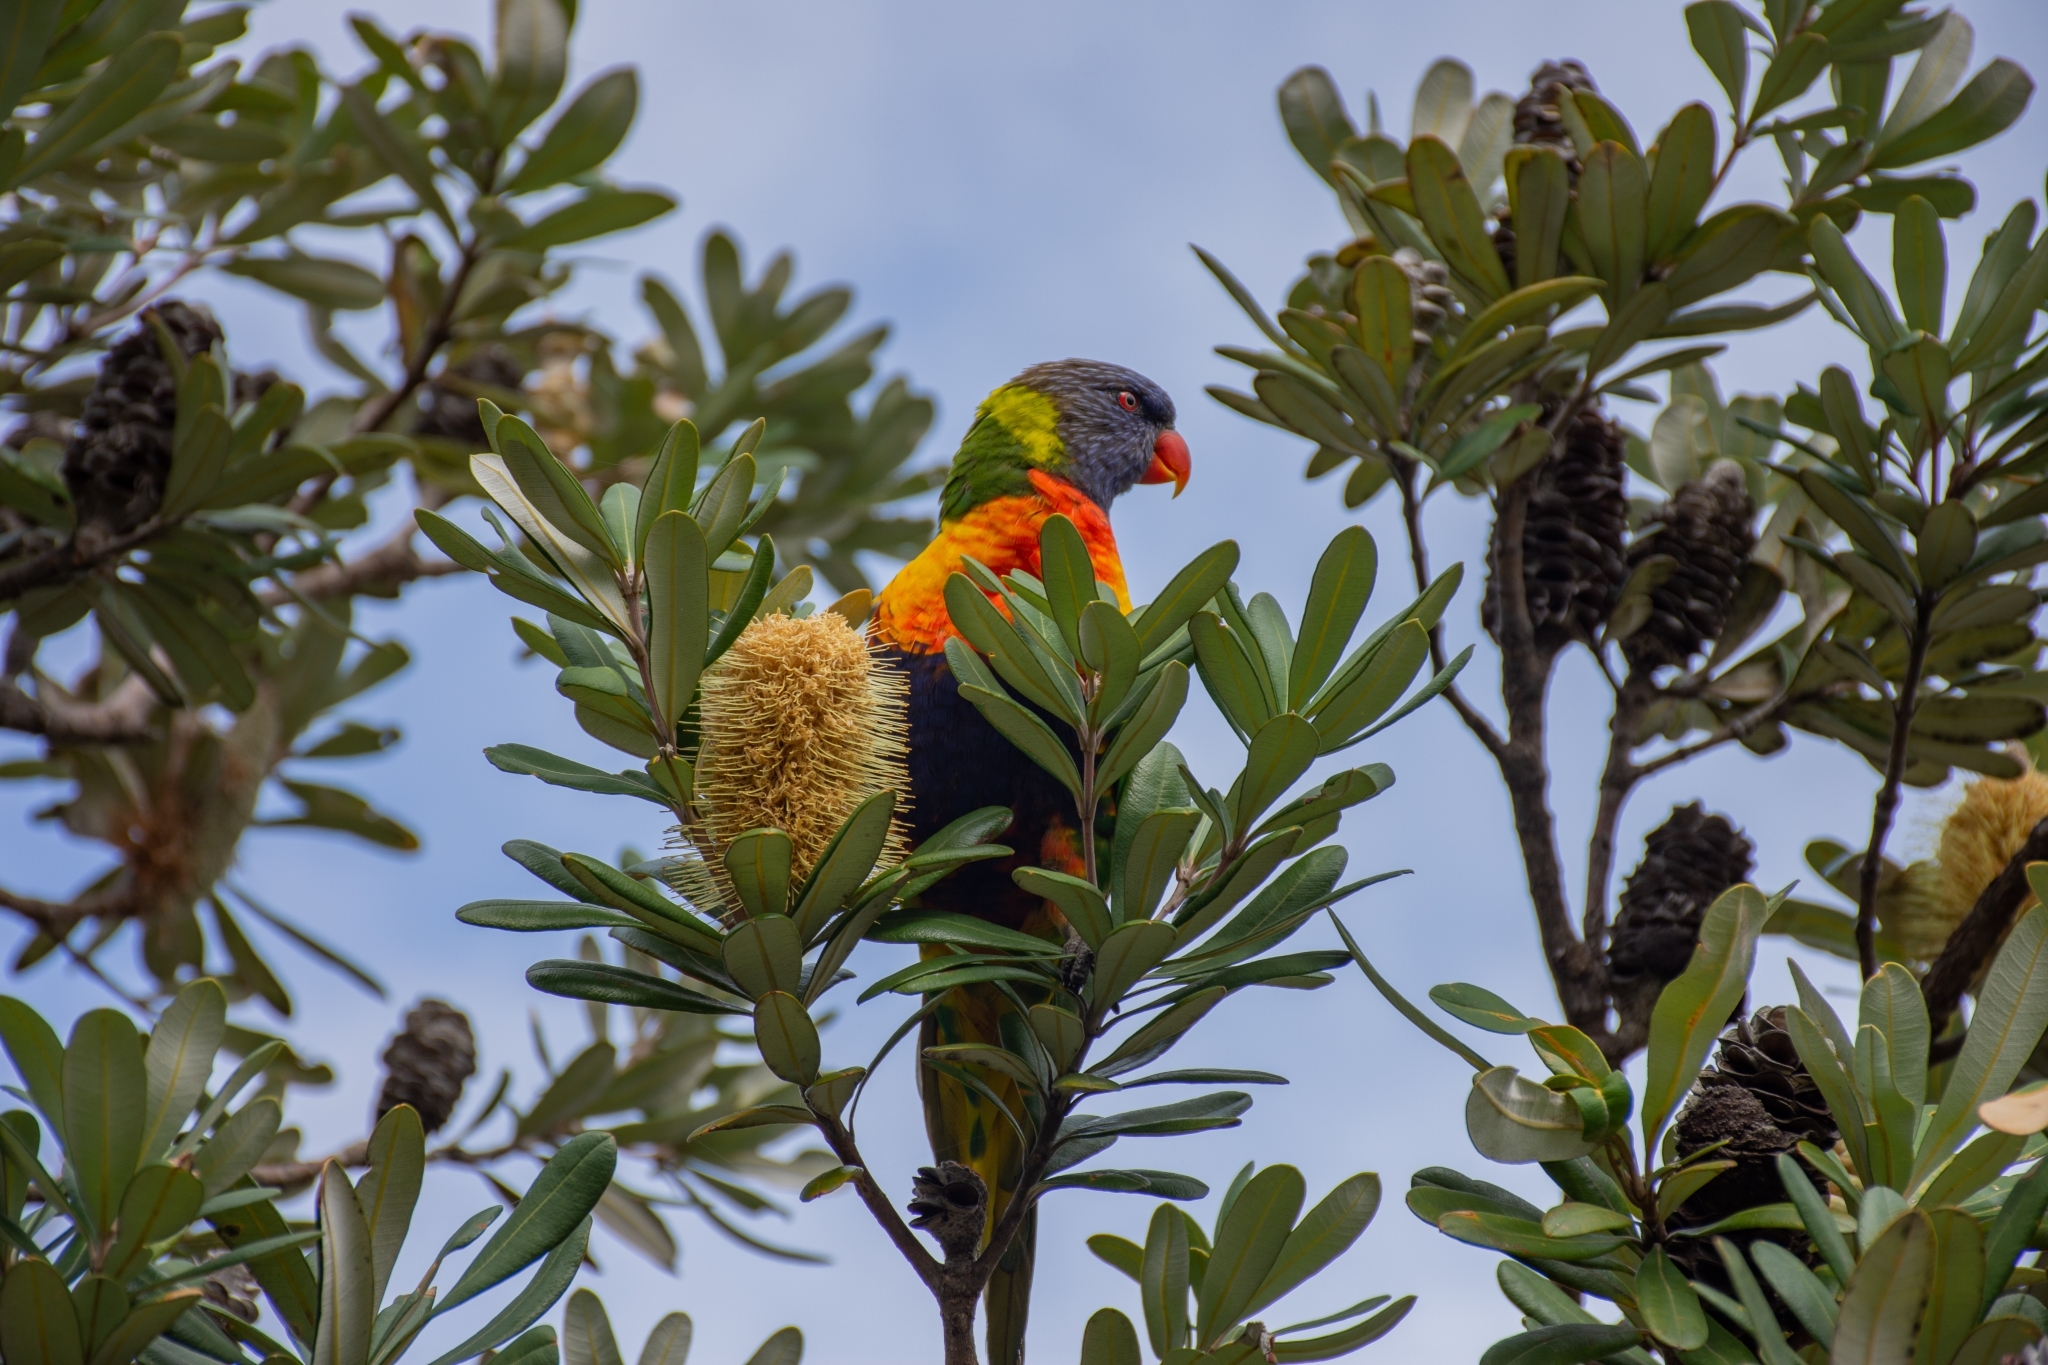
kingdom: Animalia
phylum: Chordata
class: Aves
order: Psittaciformes
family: Psittacidae
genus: Trichoglossus
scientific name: Trichoglossus haematodus
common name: Coconut lorikeet
